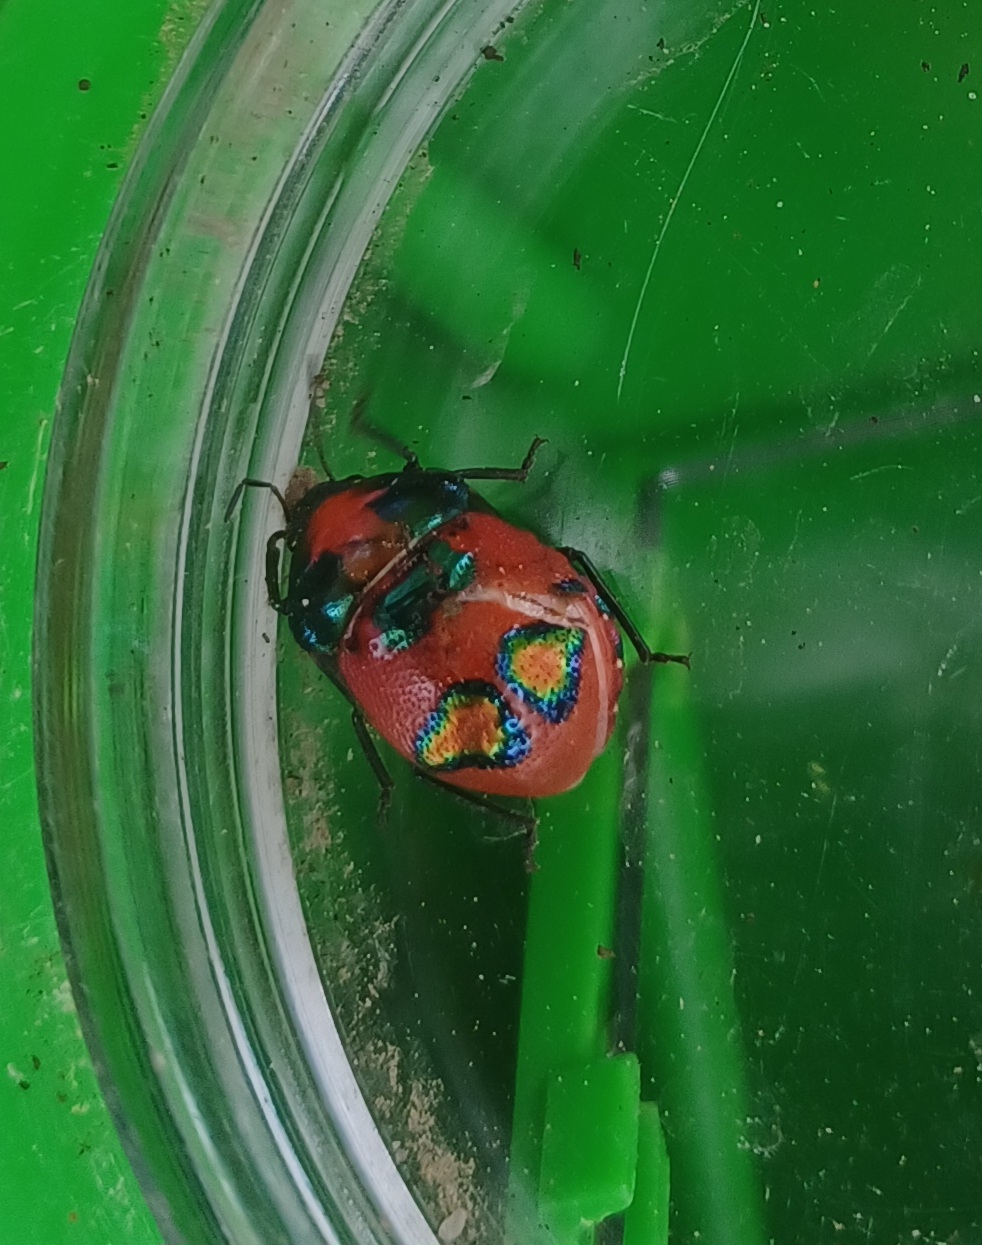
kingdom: Animalia
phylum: Arthropoda
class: Insecta
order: Hemiptera
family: Scutelleridae
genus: Choerocoris
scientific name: Choerocoris paganus
